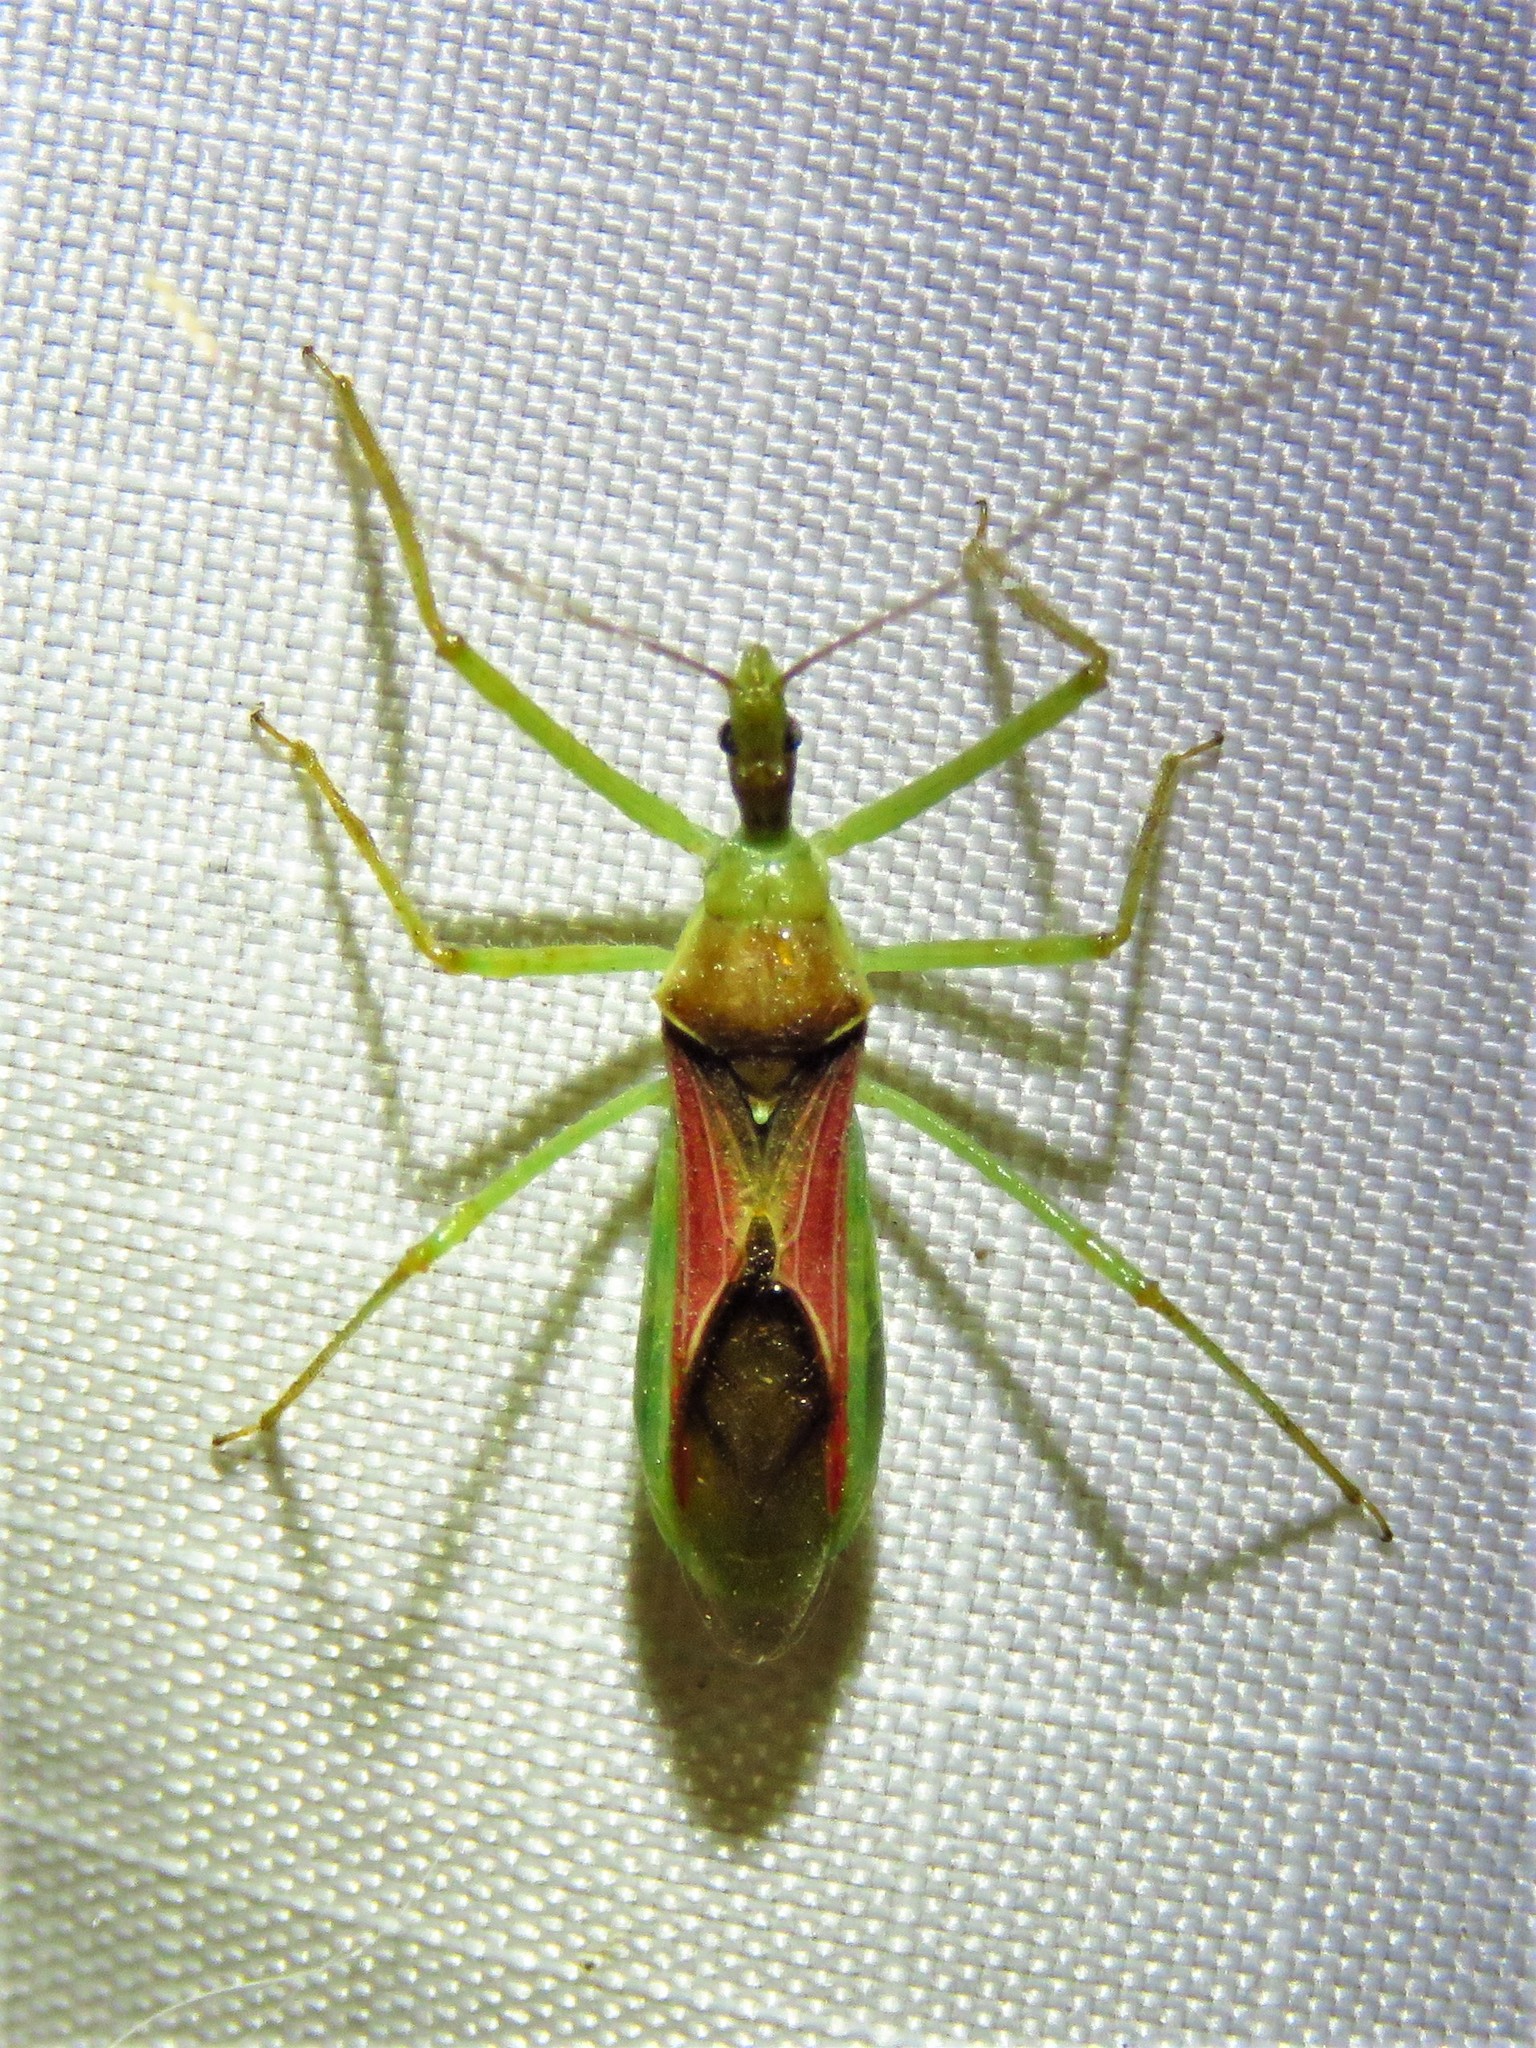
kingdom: Animalia
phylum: Arthropoda
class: Insecta
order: Hemiptera
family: Reduviidae
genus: Zelus
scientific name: Zelus renardii
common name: Assassin bug
